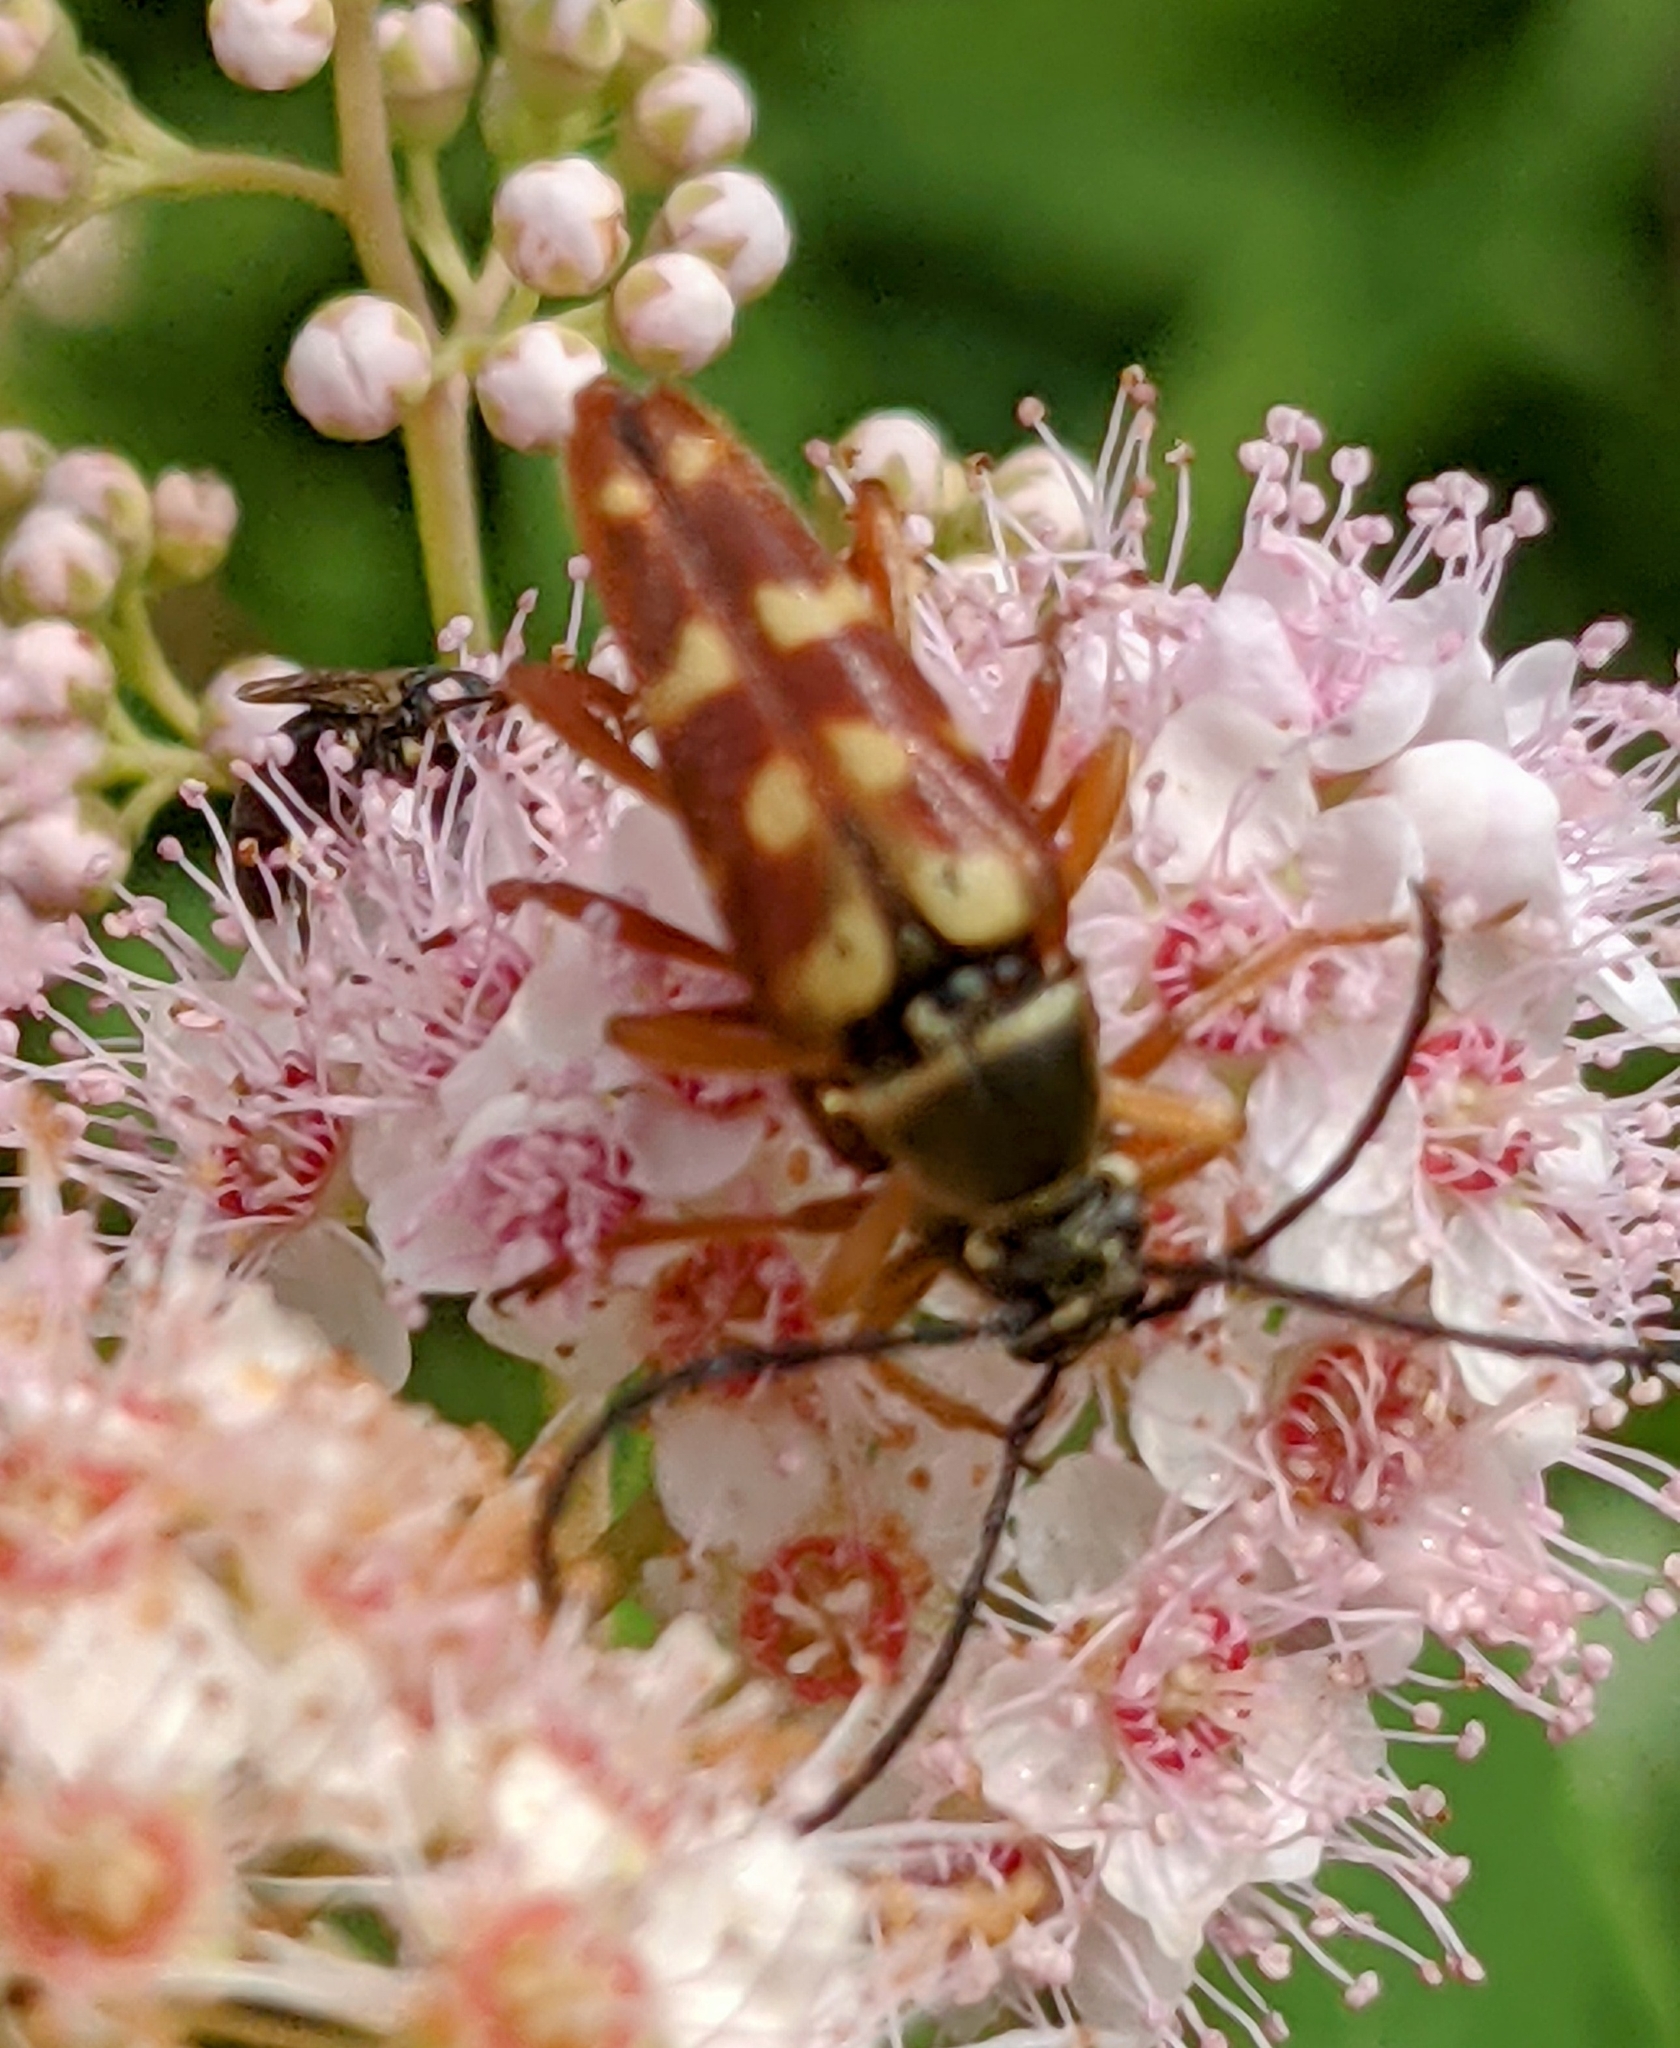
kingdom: Animalia
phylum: Arthropoda
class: Insecta
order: Coleoptera
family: Cerambycidae
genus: Typocerus
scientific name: Typocerus velutinus
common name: Banded longhorn beetle
